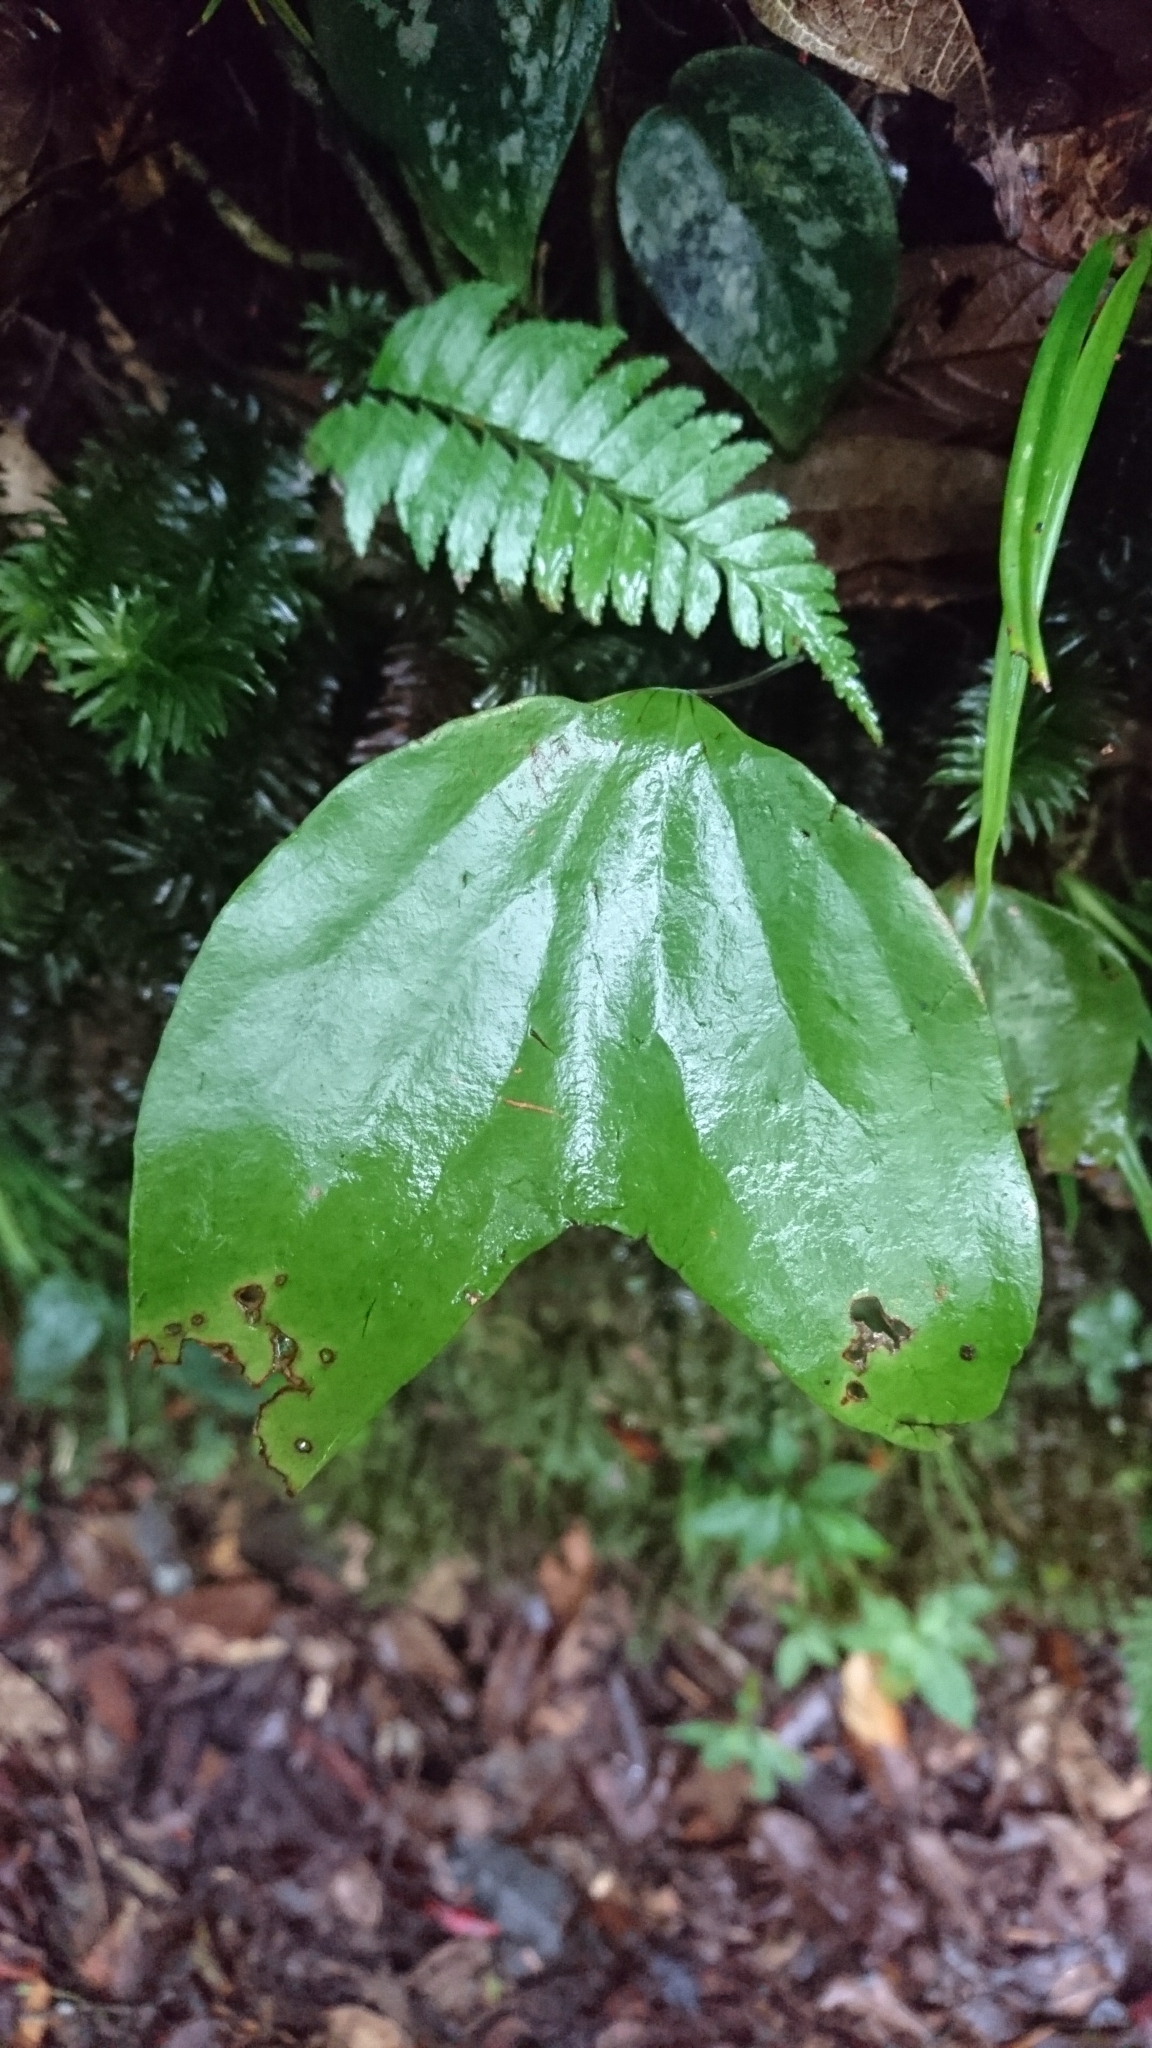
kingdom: Plantae
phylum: Tracheophyta
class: Polypodiopsida
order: Gleicheniales
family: Dipteridaceae
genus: Cheiropleuria
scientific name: Cheiropleuria bicuspis
